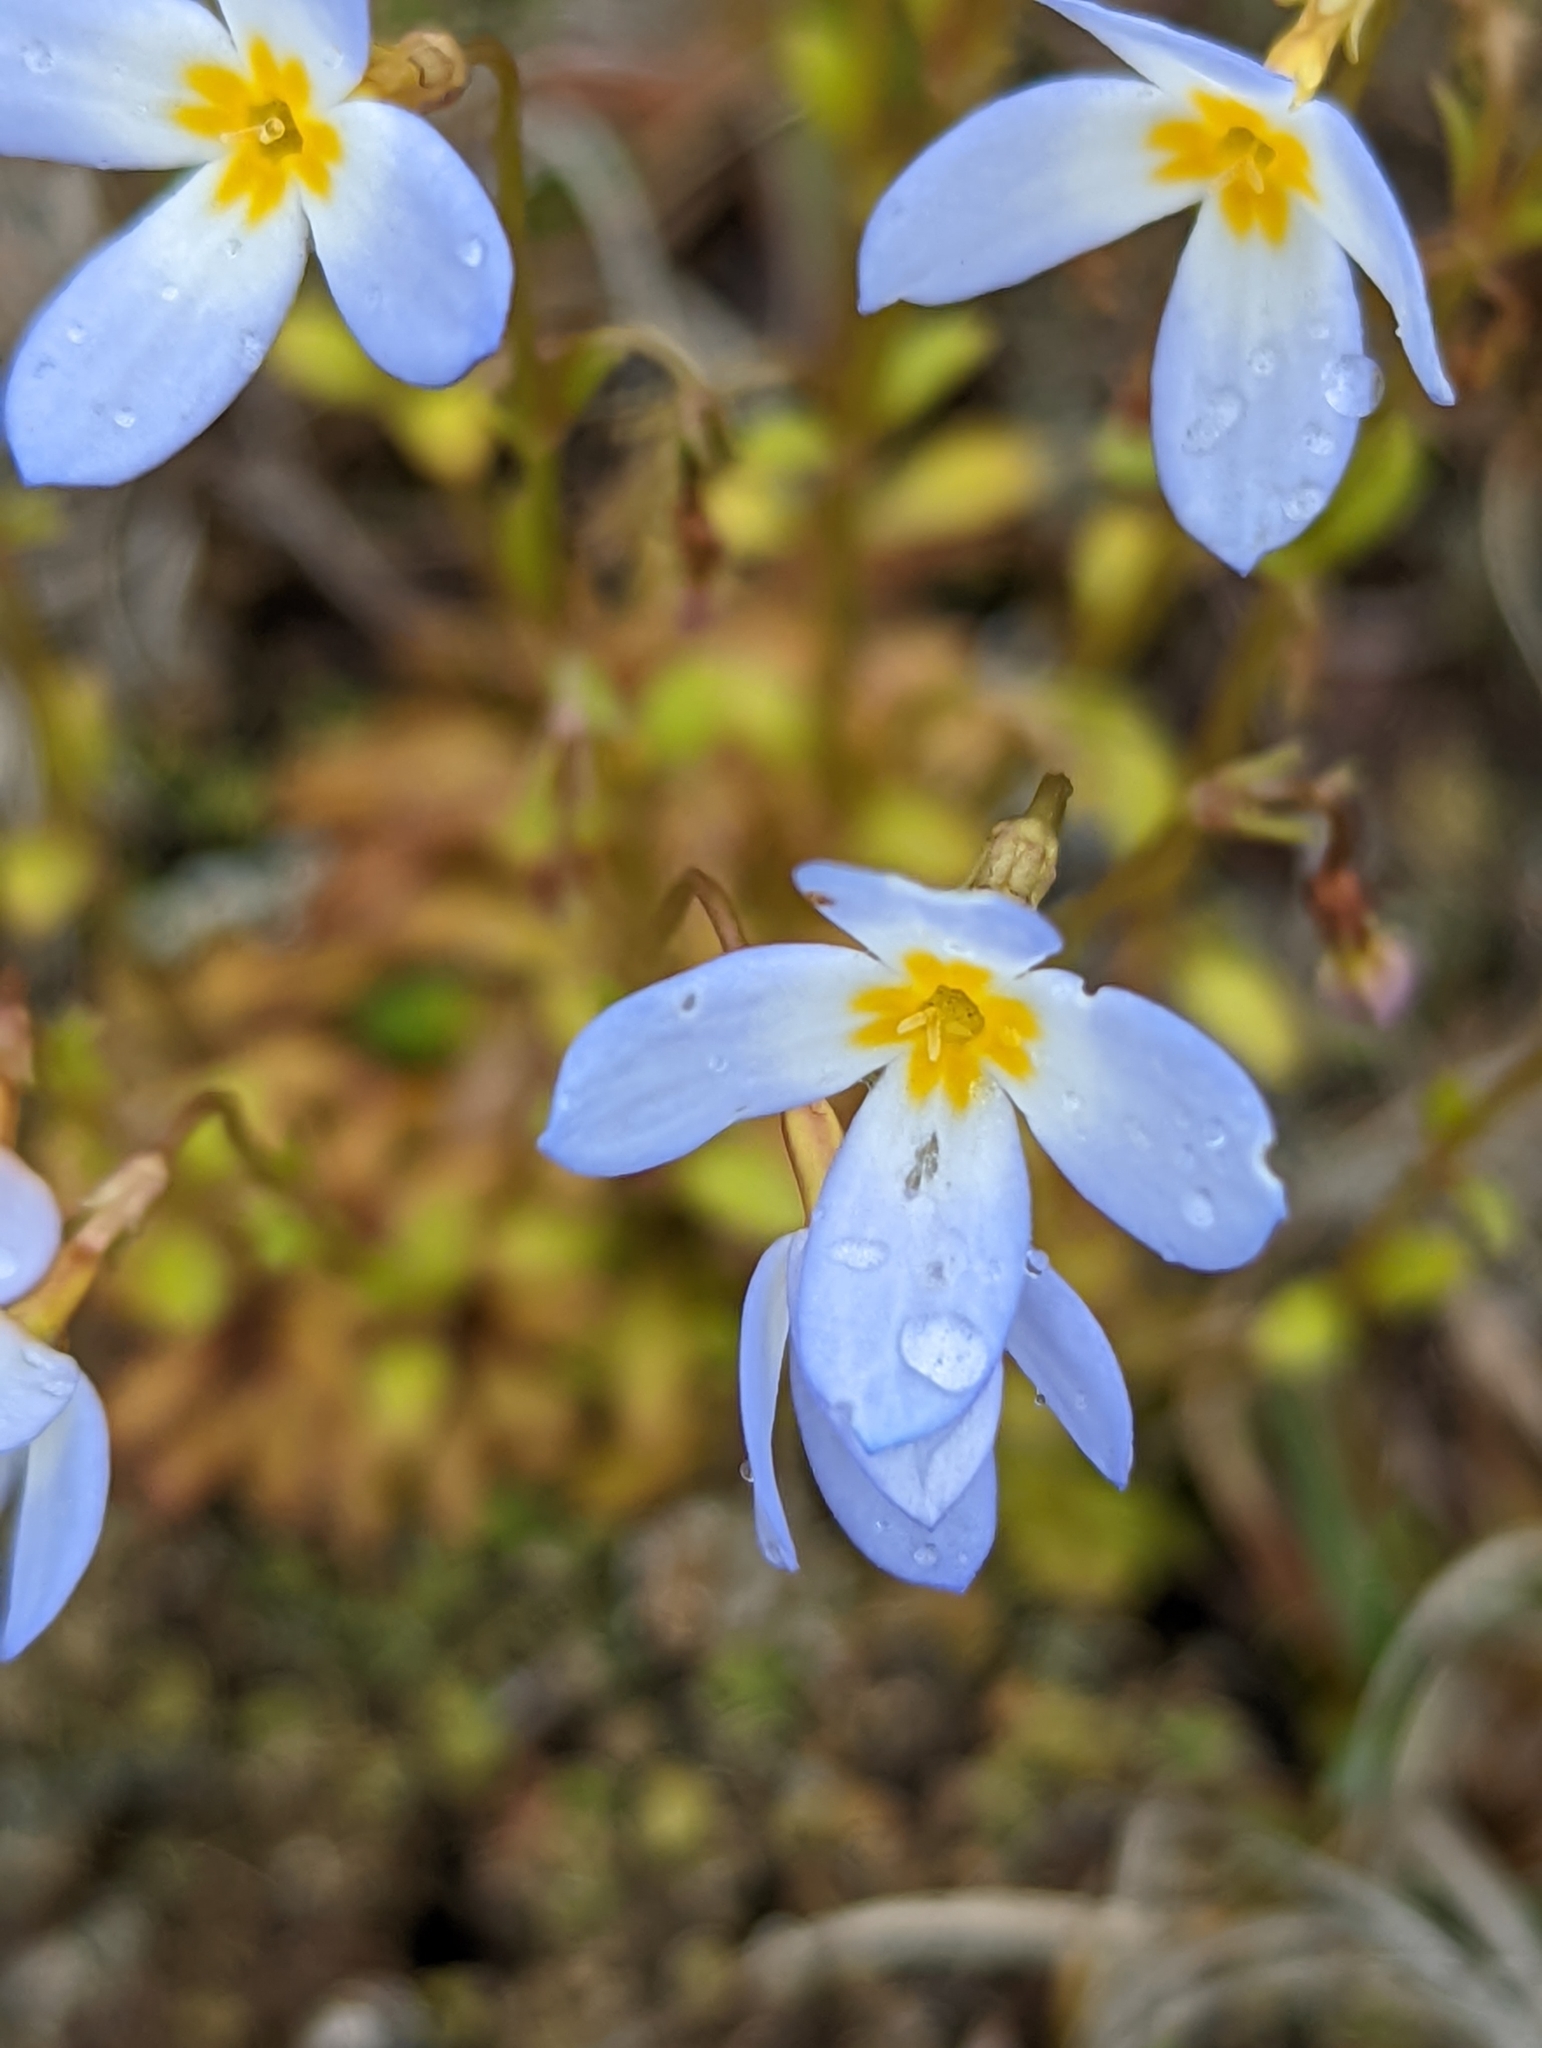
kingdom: Plantae
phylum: Tracheophyta
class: Magnoliopsida
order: Gentianales
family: Rubiaceae
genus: Houstonia
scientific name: Houstonia caerulea
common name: Bluets
